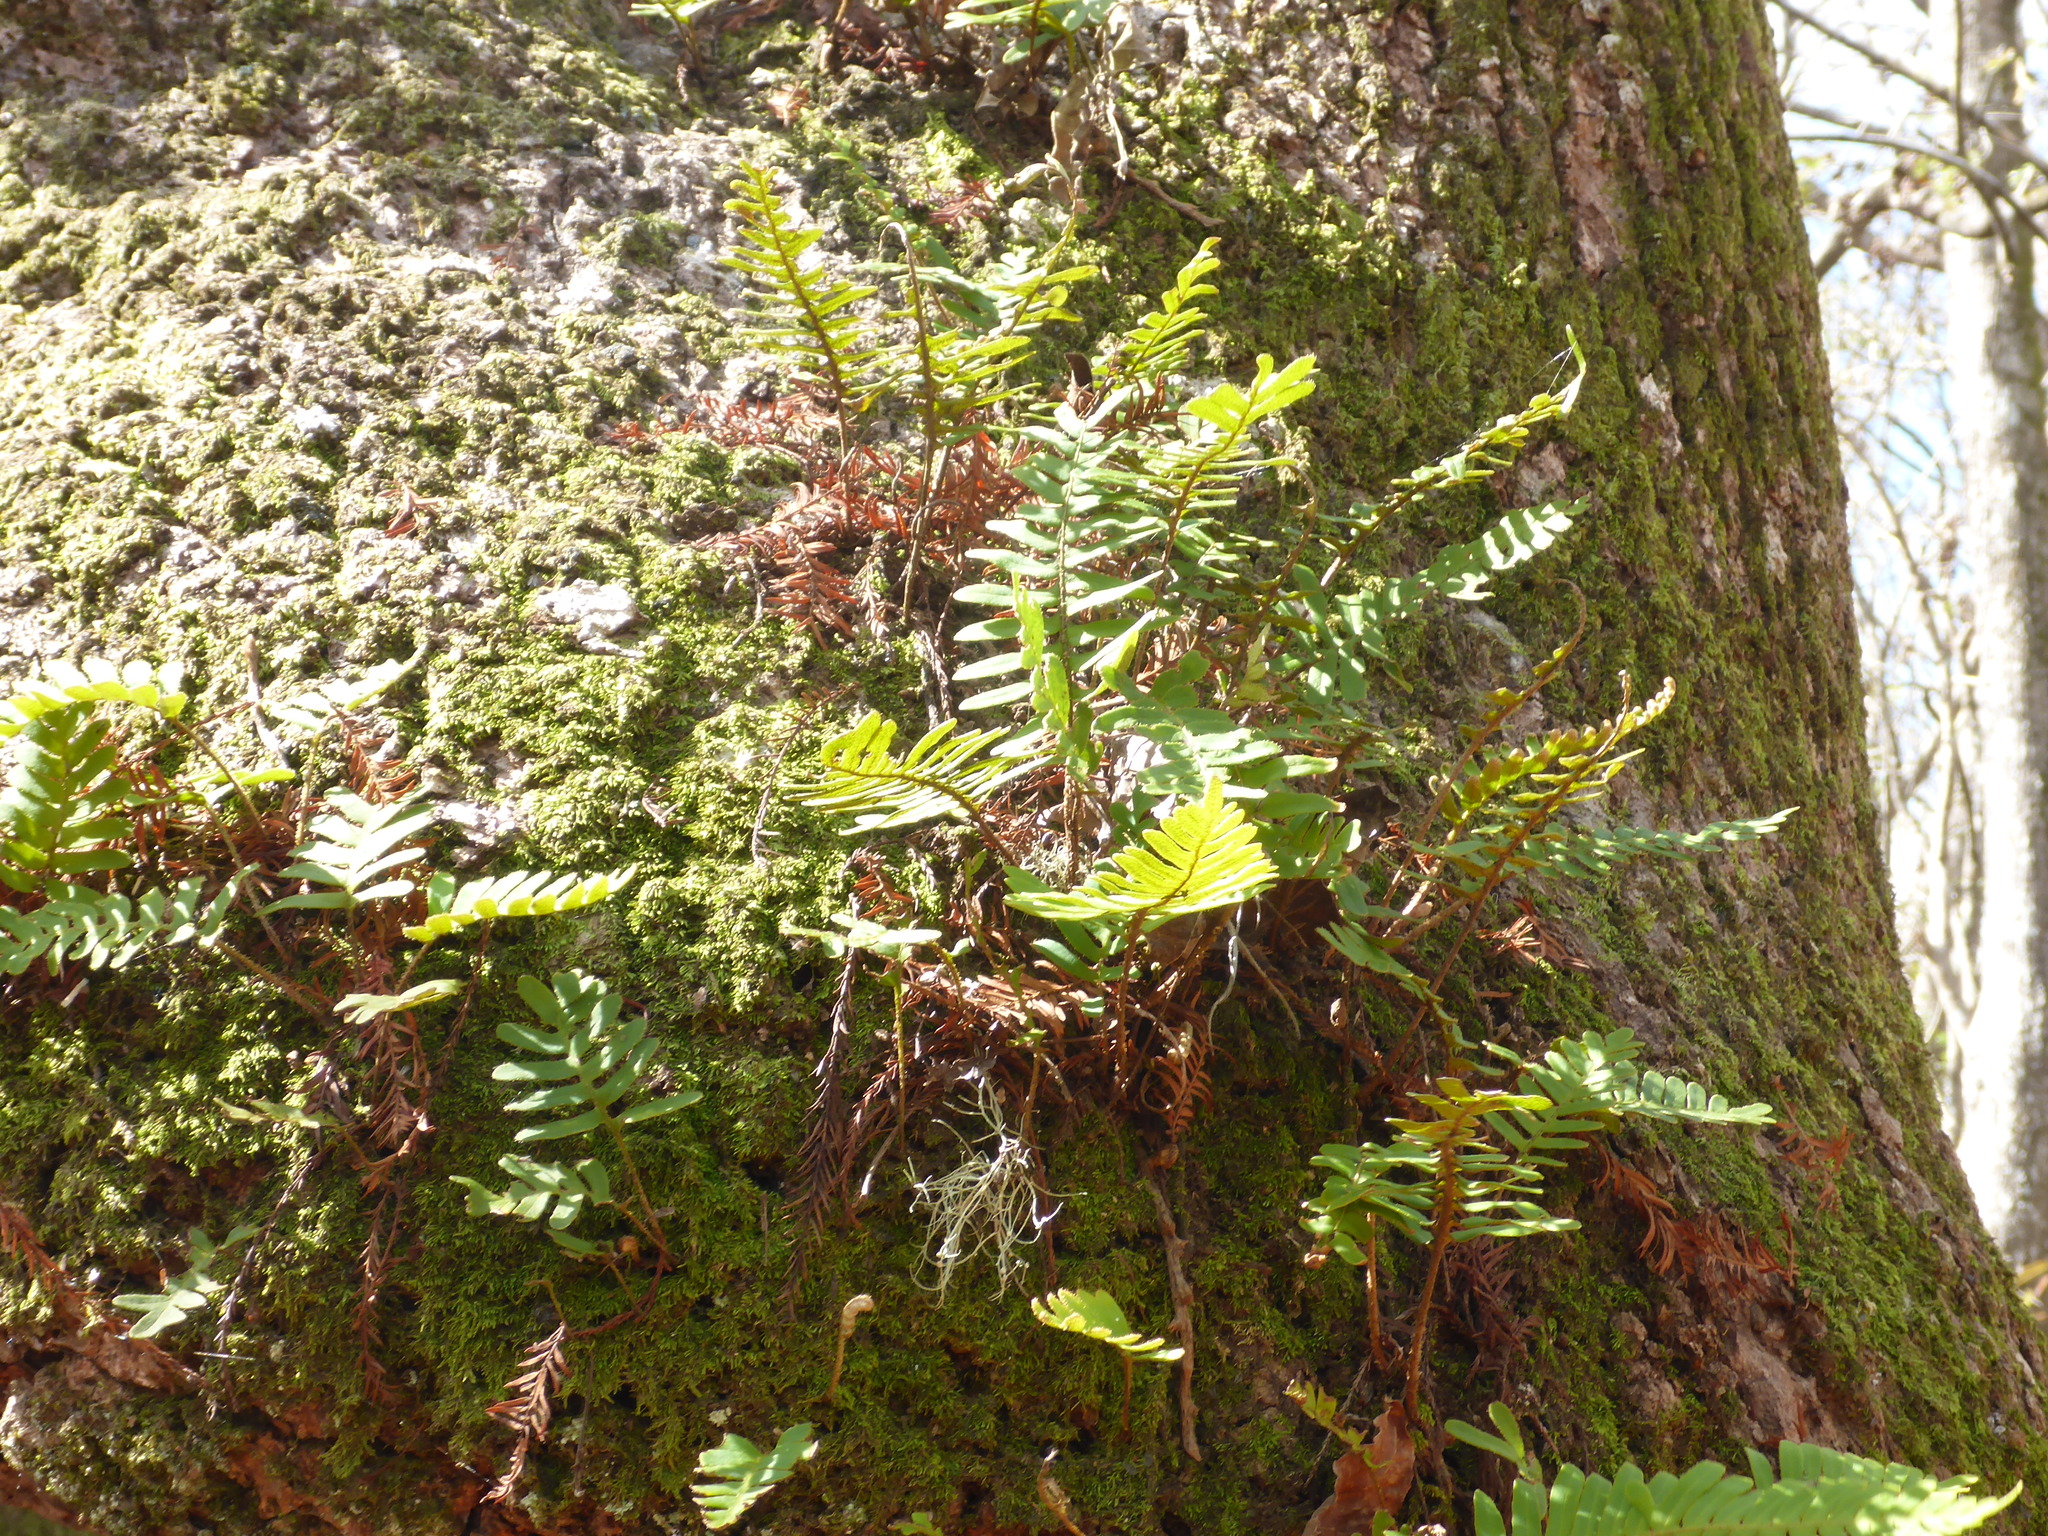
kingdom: Plantae
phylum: Tracheophyta
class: Polypodiopsida
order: Polypodiales
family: Polypodiaceae
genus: Pleopeltis
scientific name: Pleopeltis michauxiana
